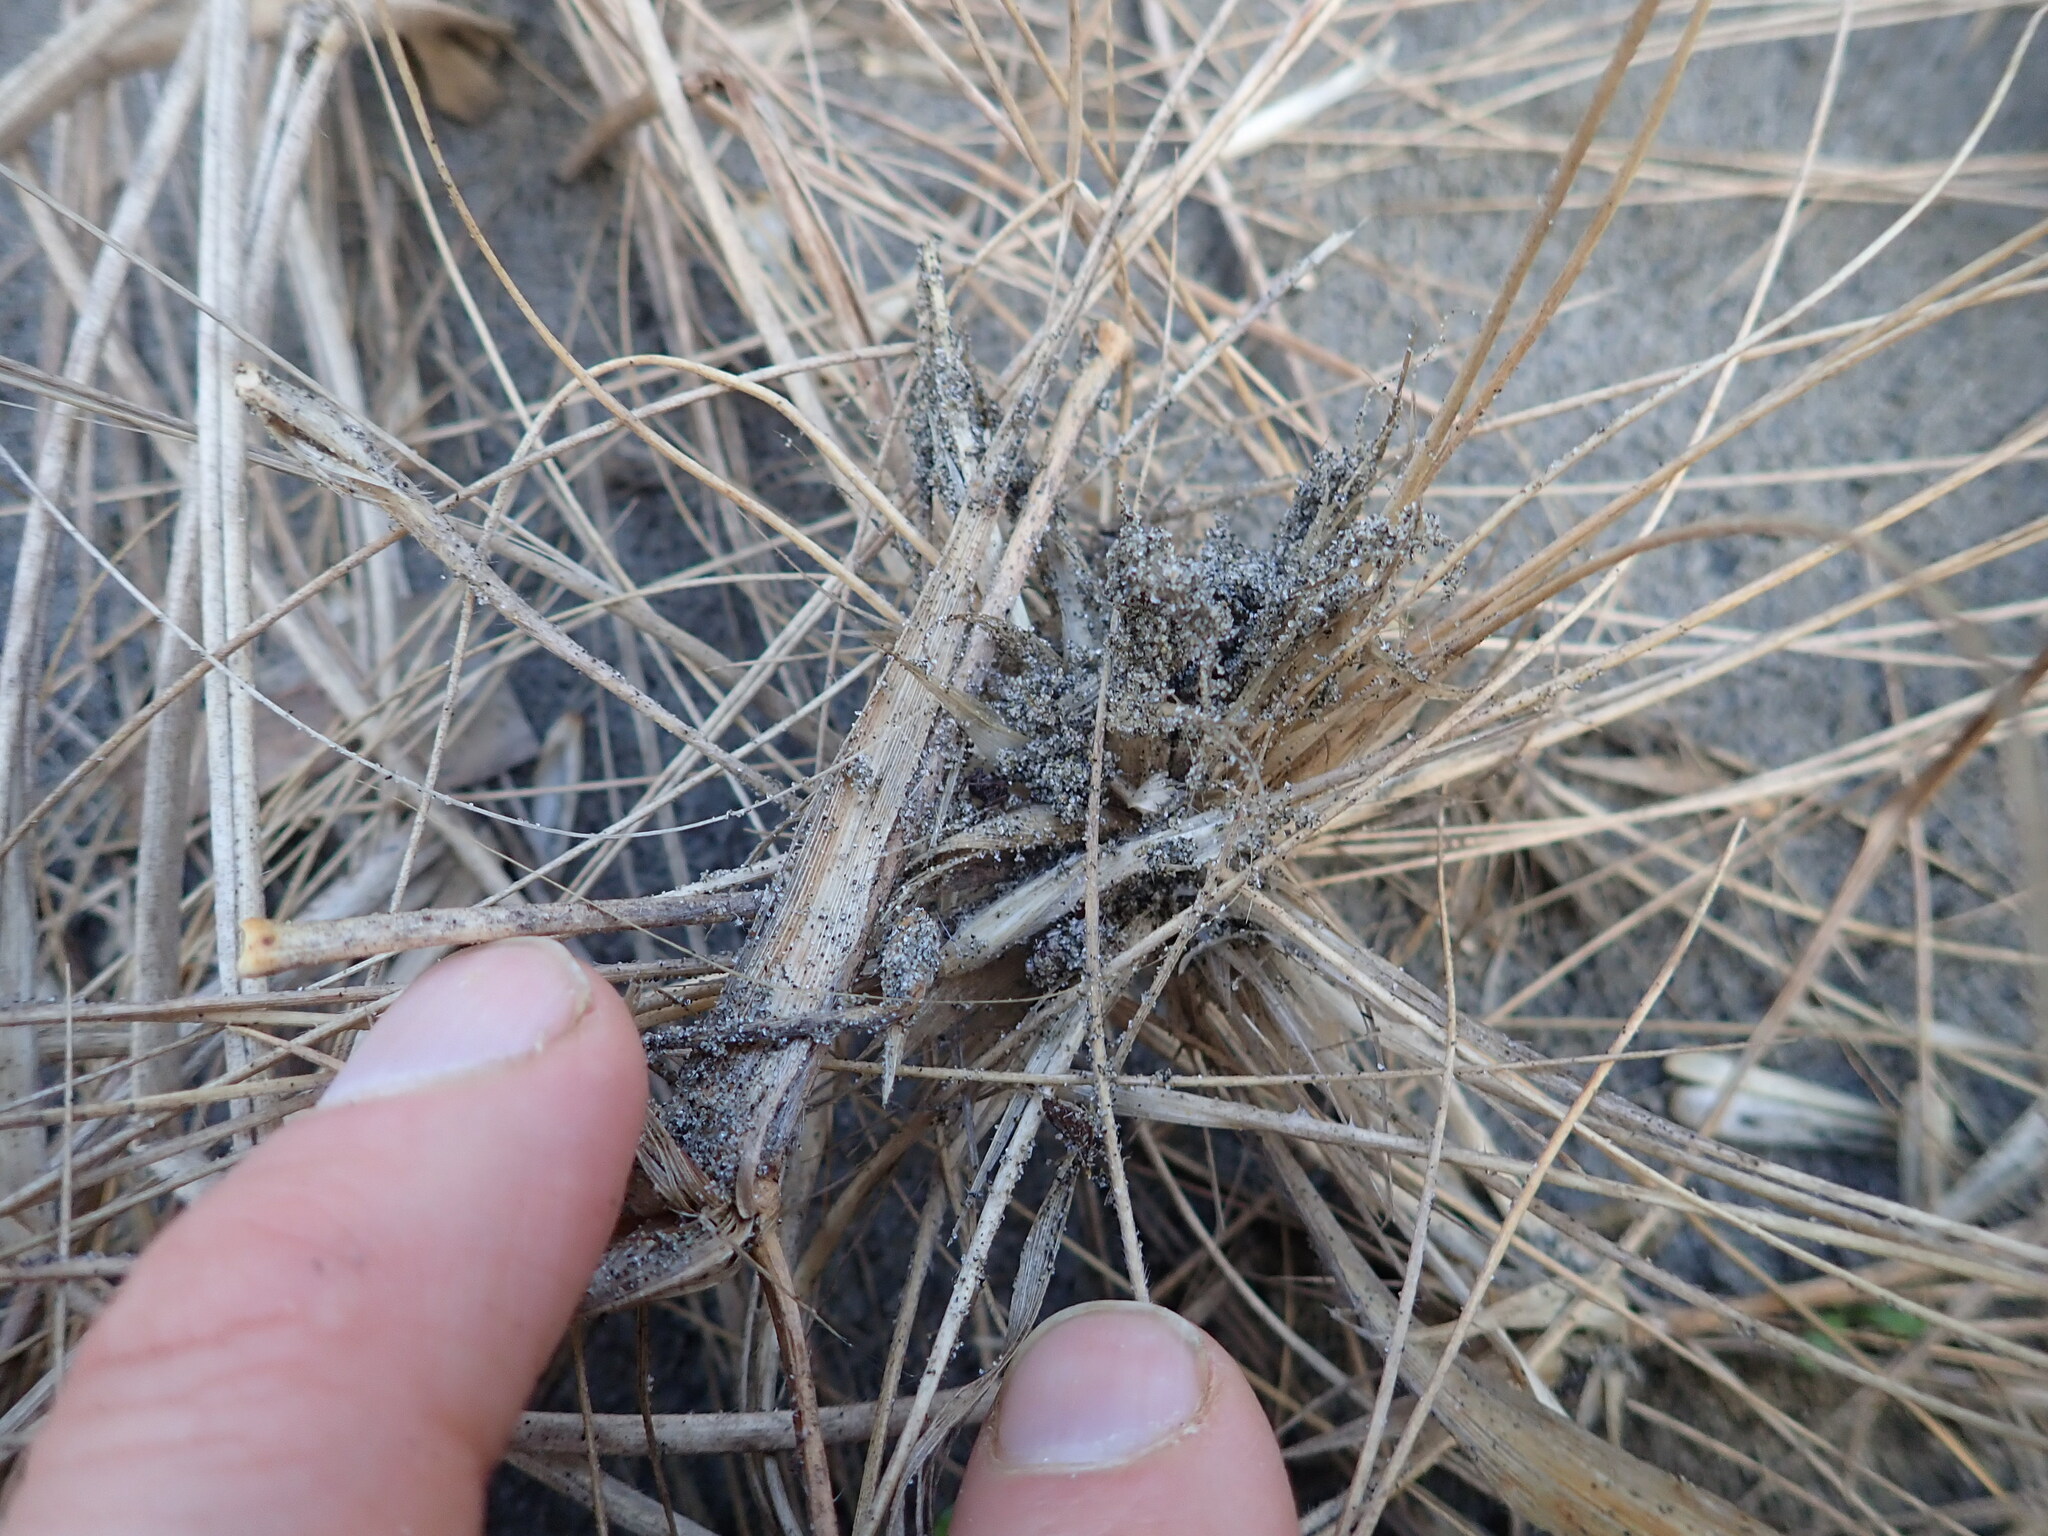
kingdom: Animalia
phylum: Arthropoda
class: Arachnida
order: Araneae
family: Theridiidae
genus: Steatoda
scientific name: Steatoda lepida
